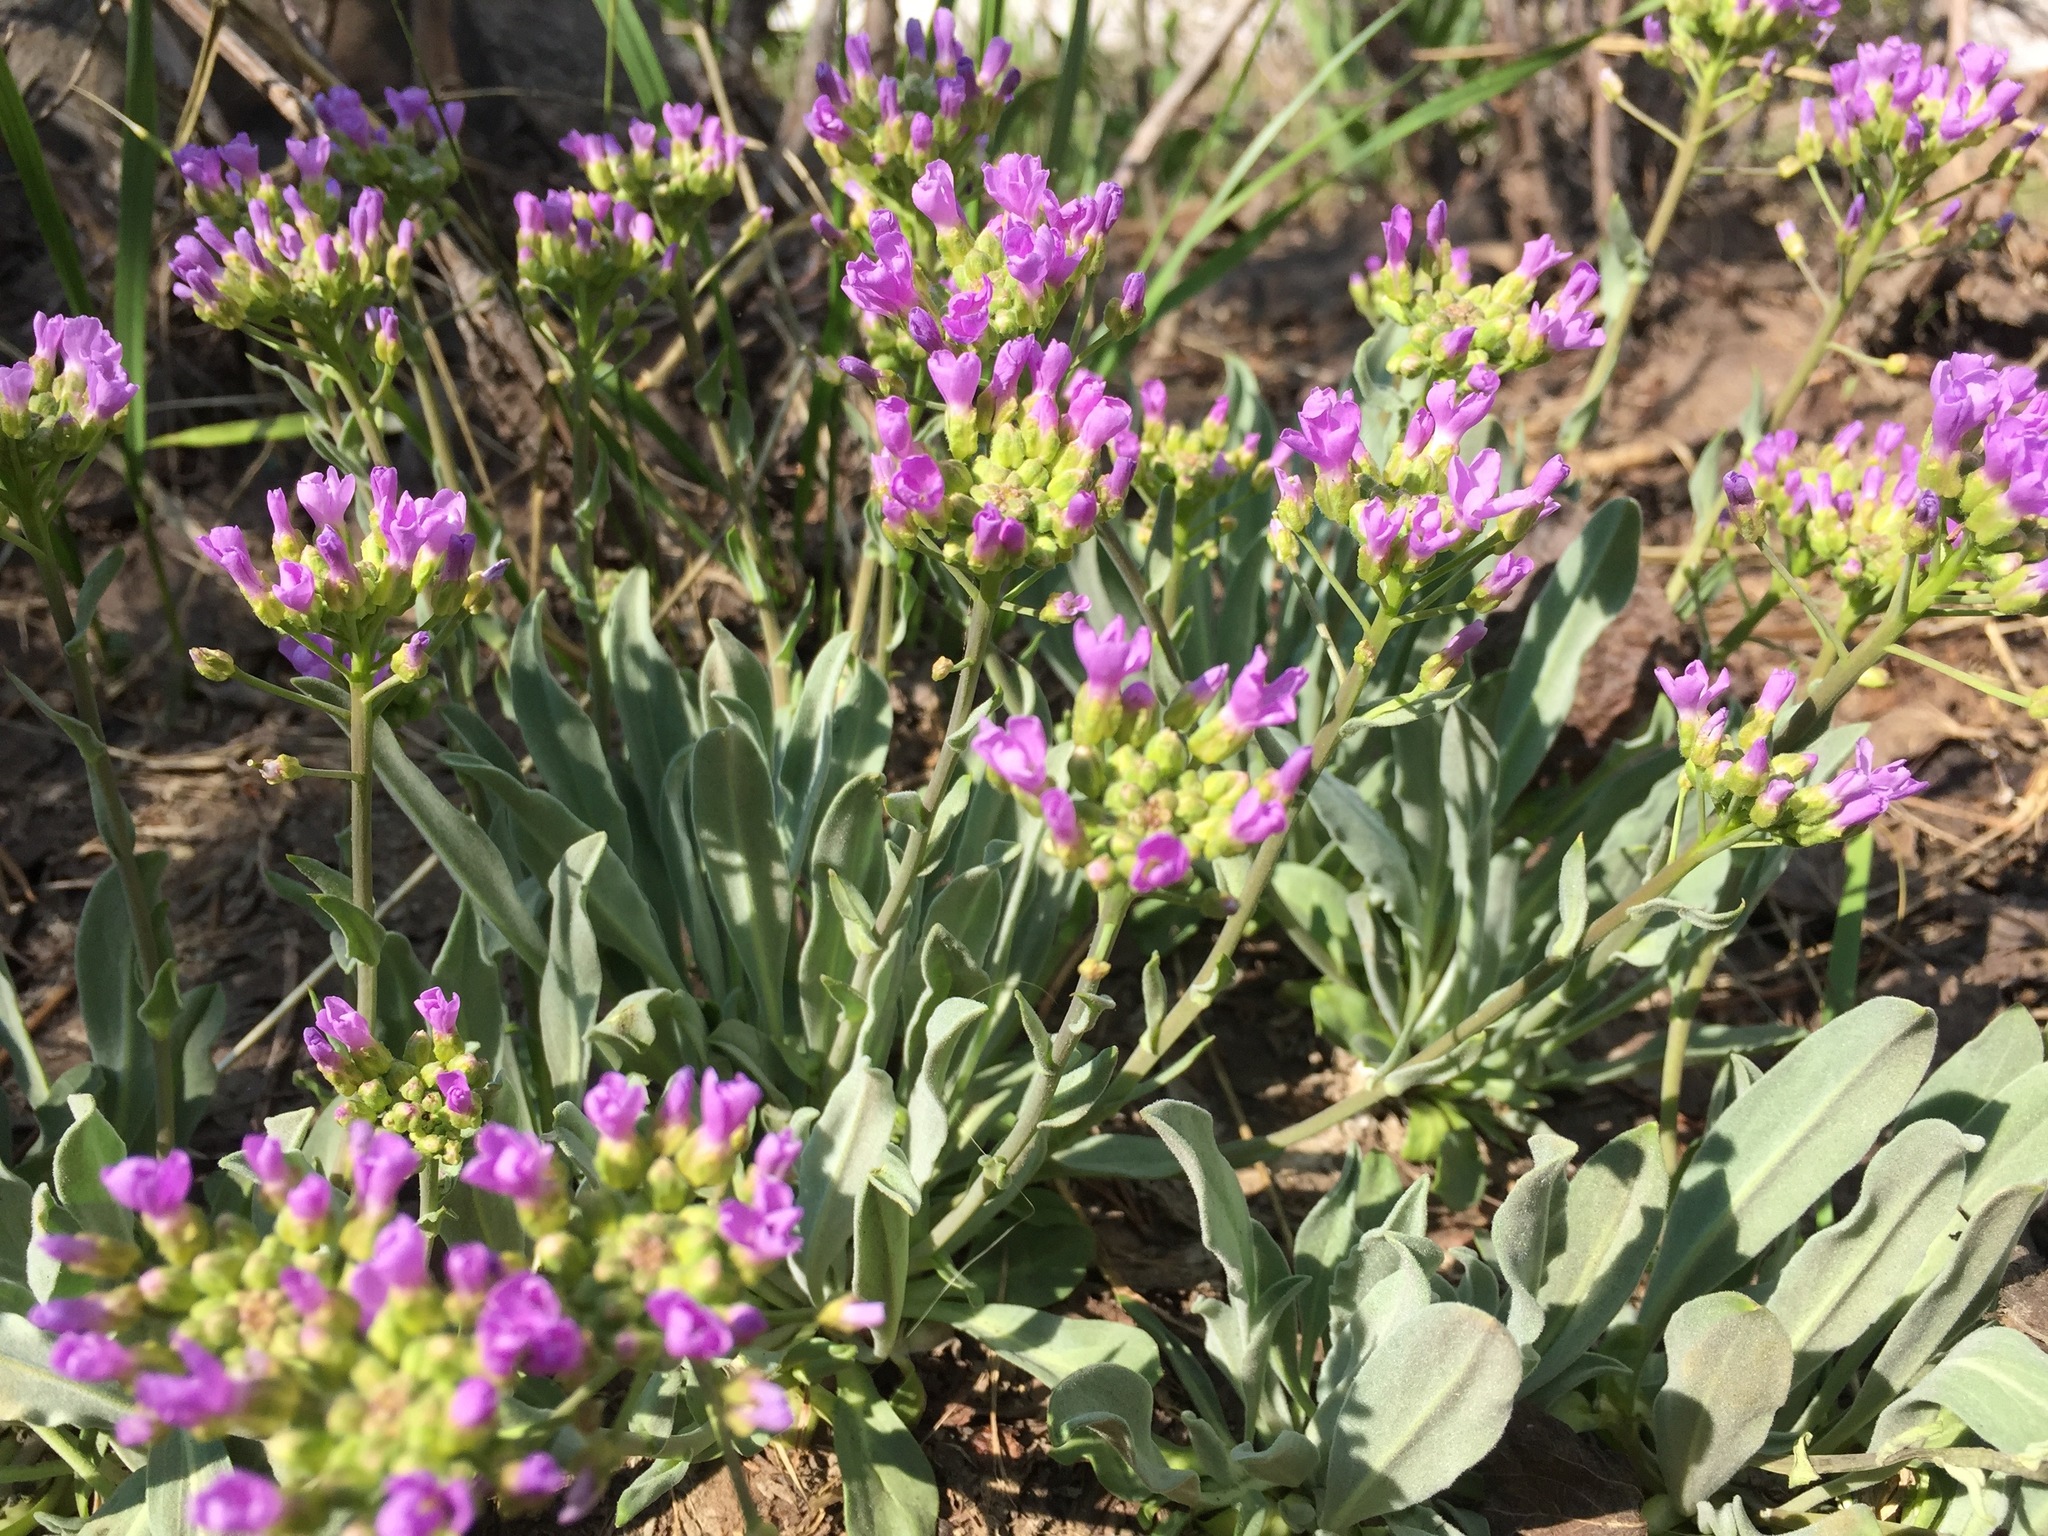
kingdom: Plantae
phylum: Tracheophyta
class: Magnoliopsida
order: Brassicales
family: Brassicaceae
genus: Phoenicaulis
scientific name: Phoenicaulis cheiranthoides
